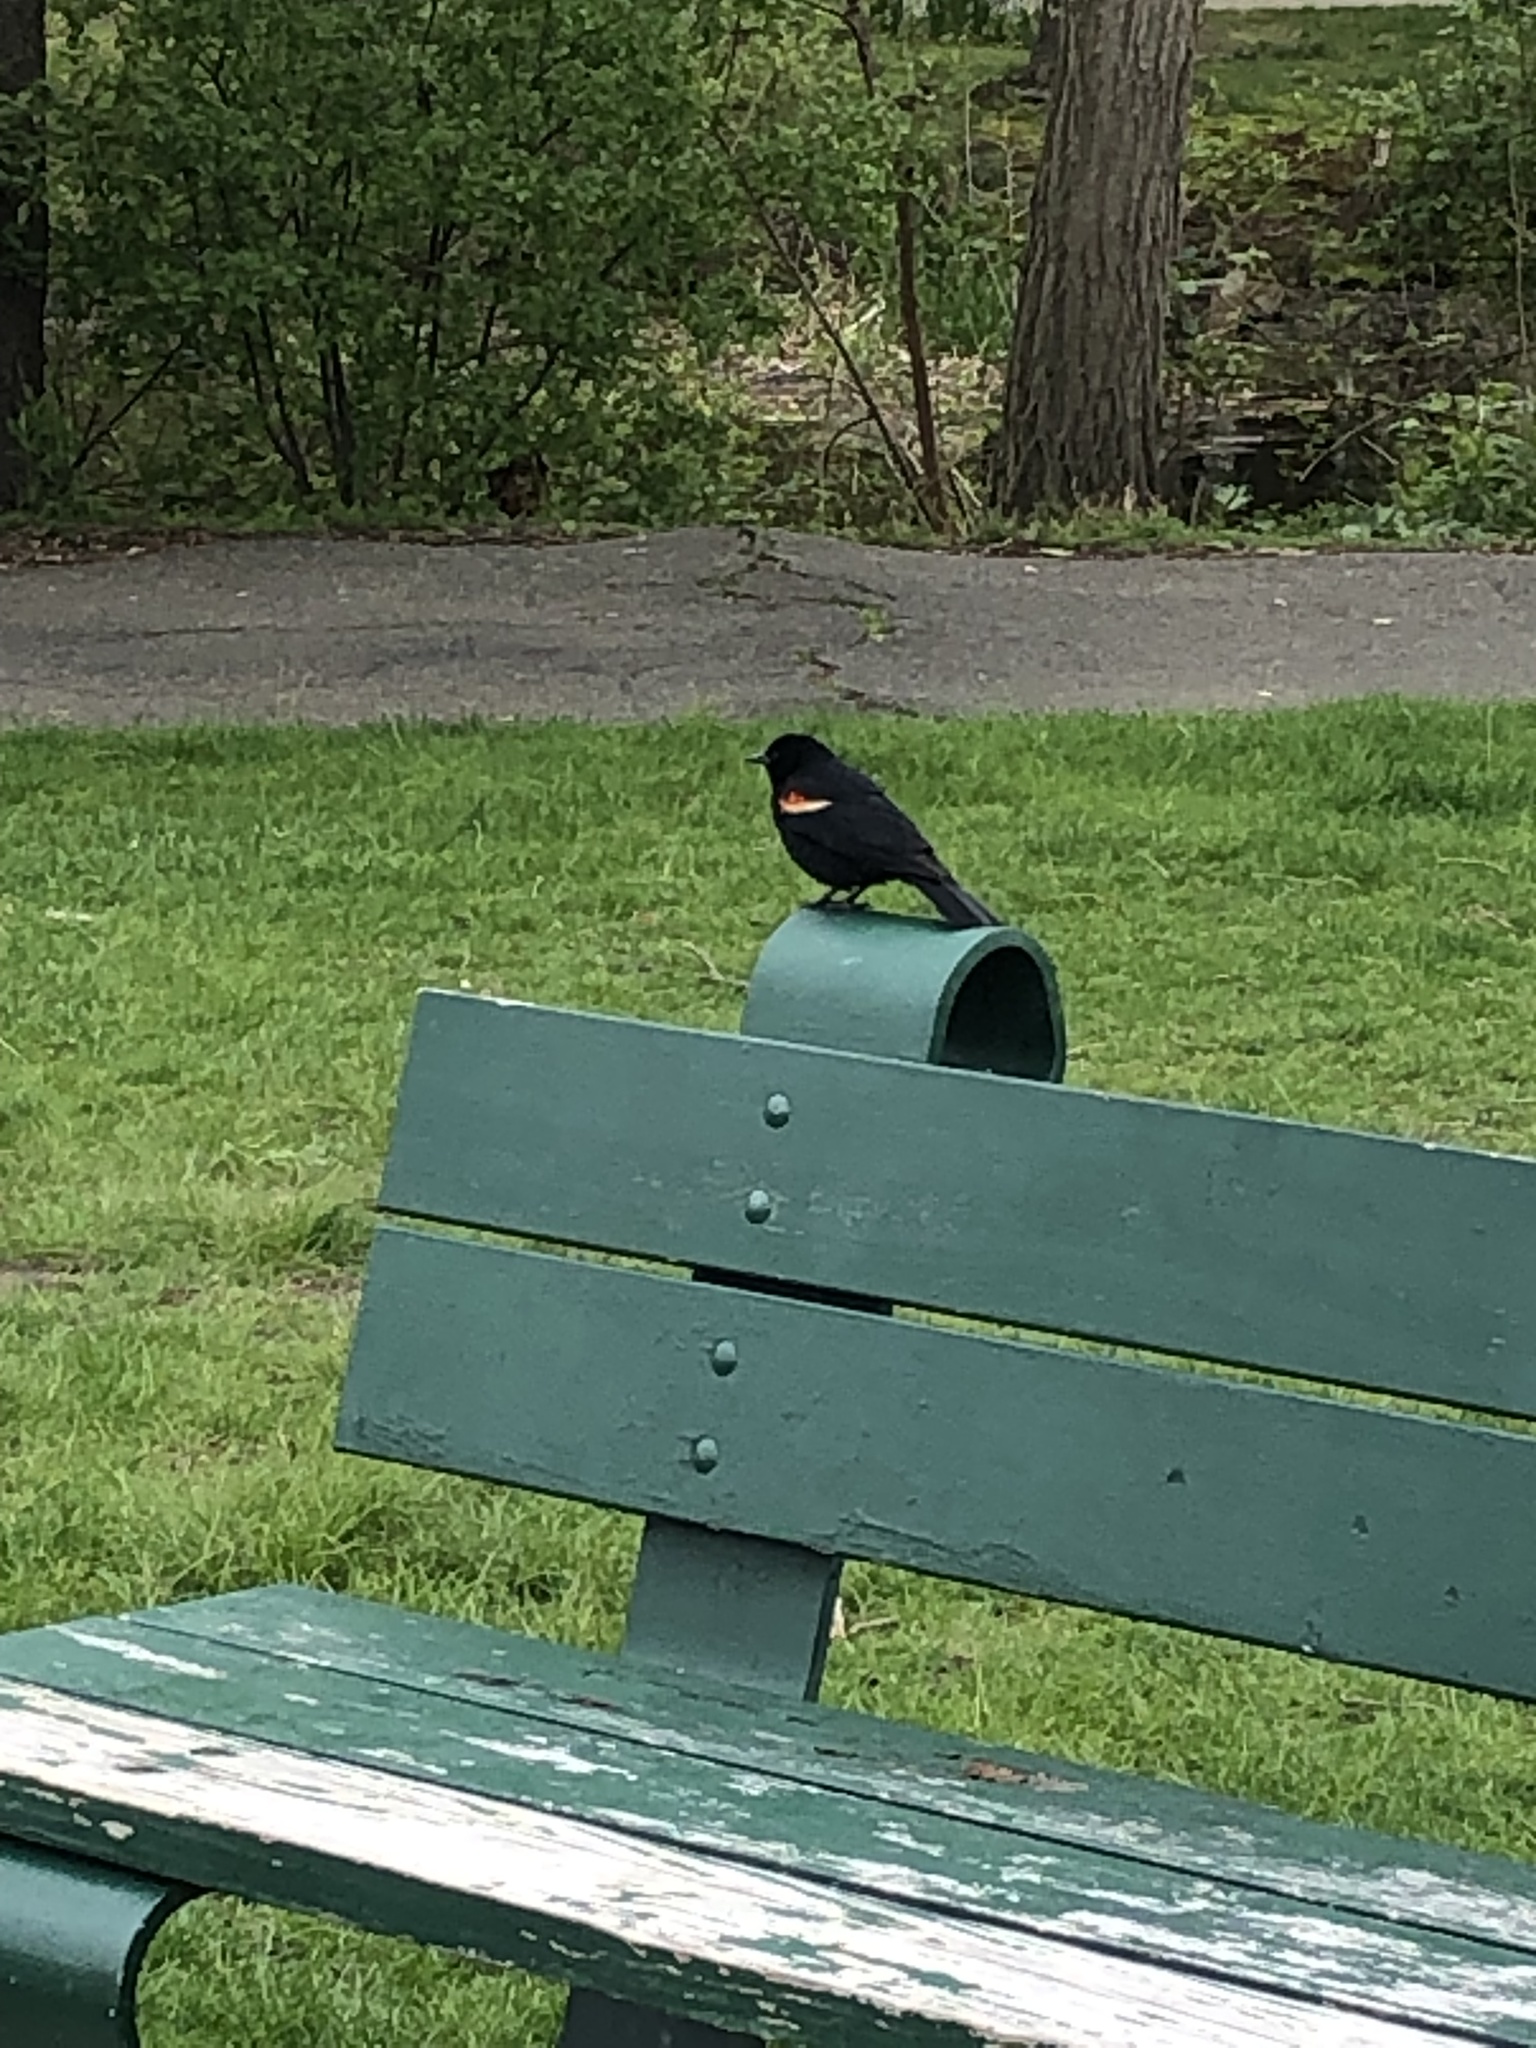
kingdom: Animalia
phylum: Chordata
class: Aves
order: Passeriformes
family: Icteridae
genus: Agelaius
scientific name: Agelaius phoeniceus
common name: Red-winged blackbird
